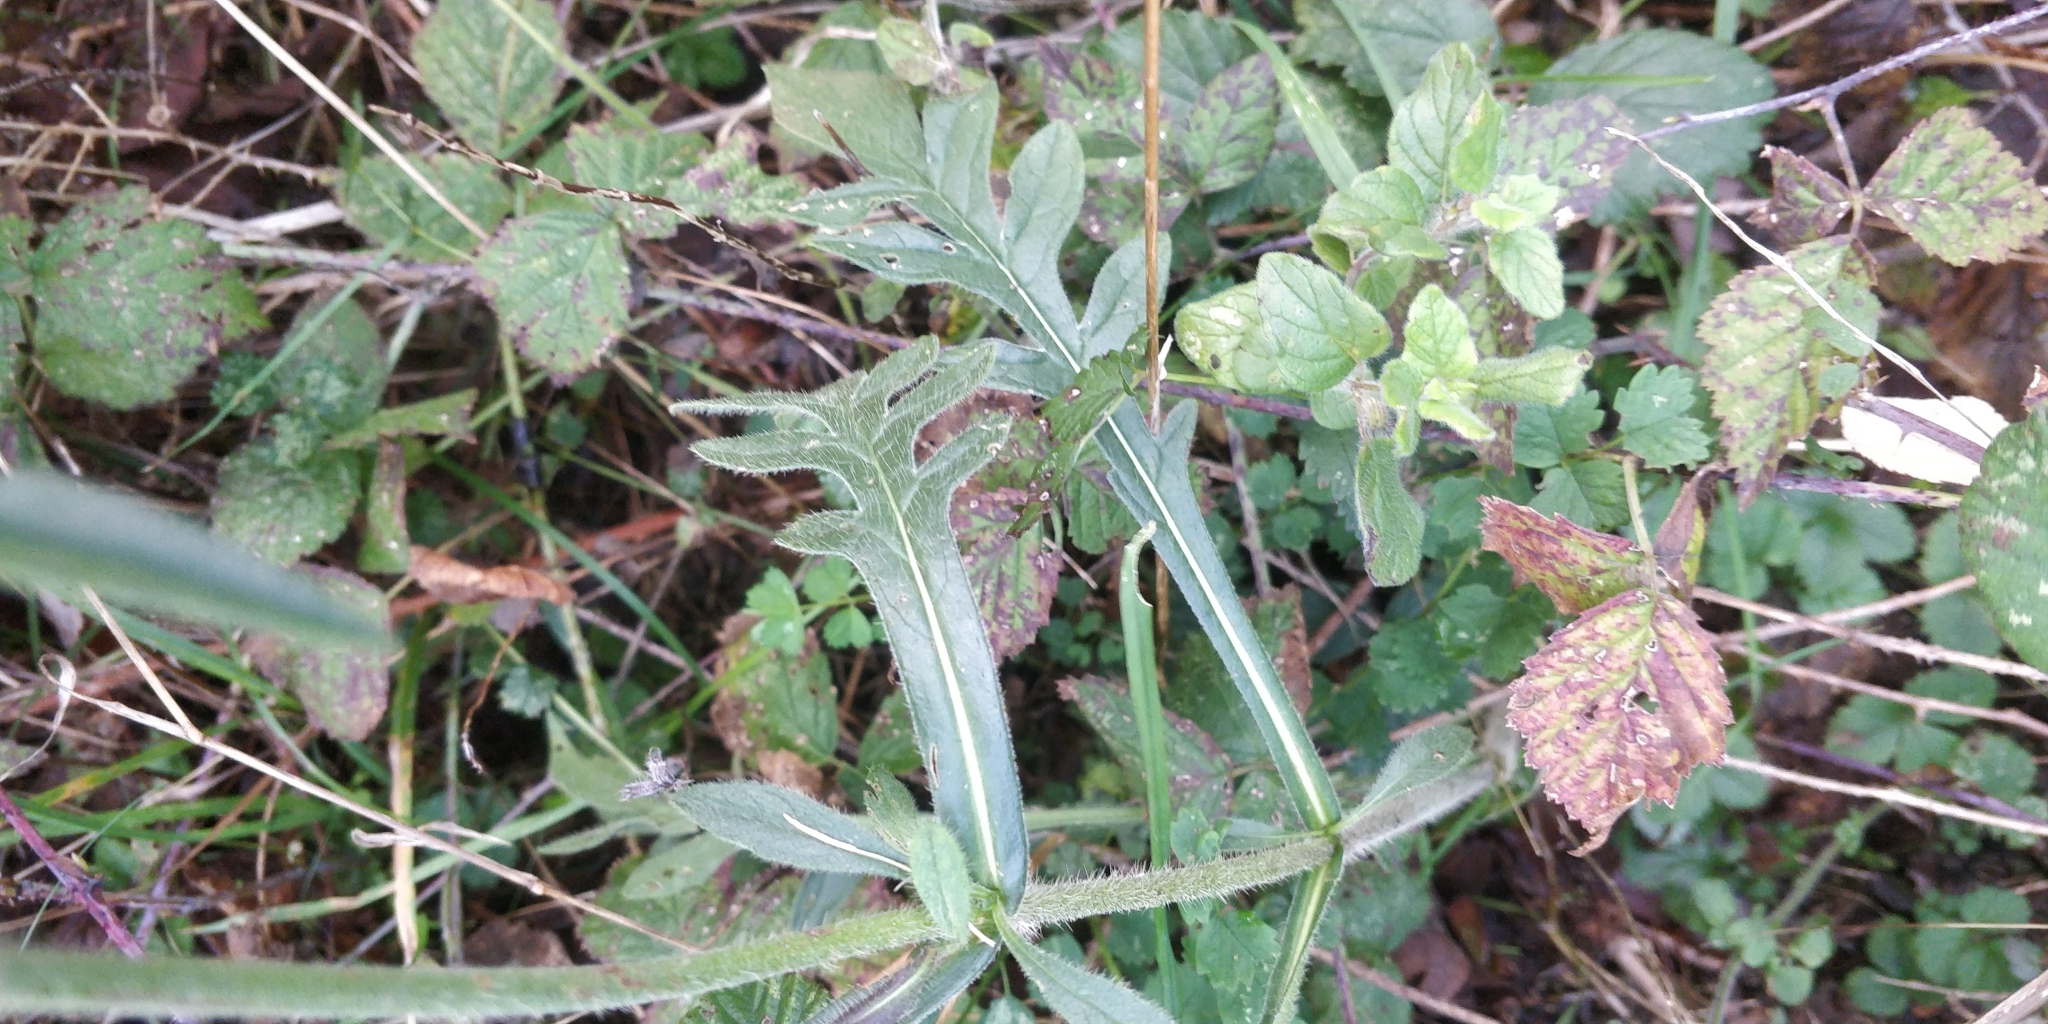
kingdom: Plantae
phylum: Tracheophyta
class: Magnoliopsida
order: Dipsacales
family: Caprifoliaceae
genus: Knautia
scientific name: Knautia arvensis
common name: Field scabiosa
